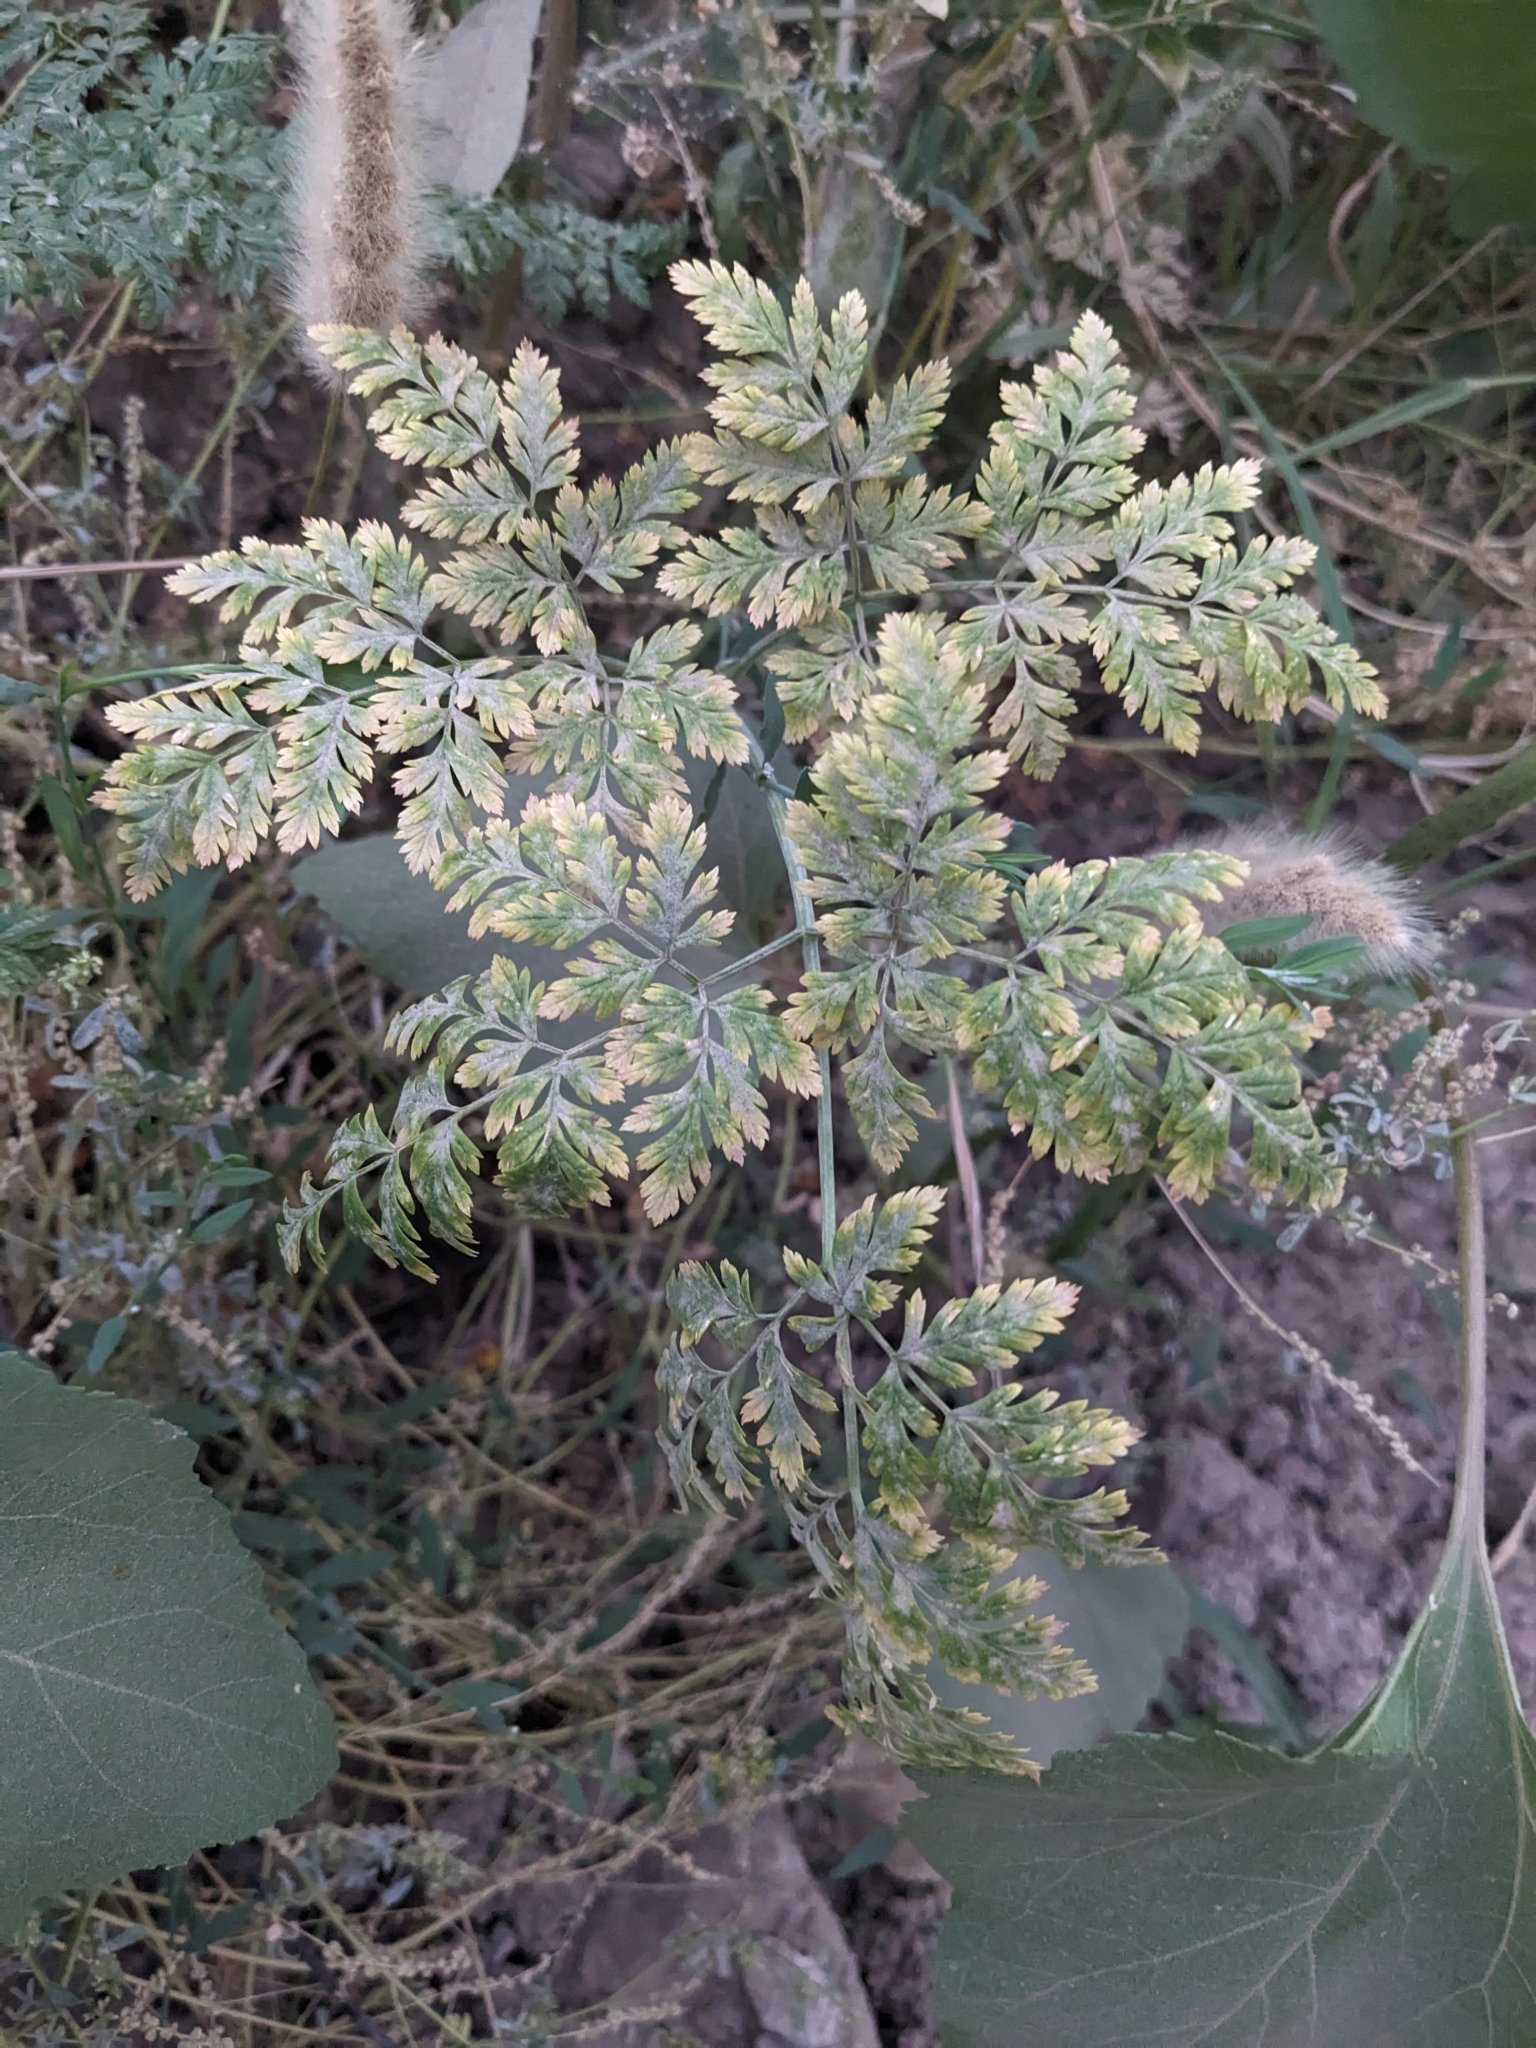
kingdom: Plantae
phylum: Tracheophyta
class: Magnoliopsida
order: Apiales
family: Apiaceae
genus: Conium
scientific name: Conium maculatum
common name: Hemlock
